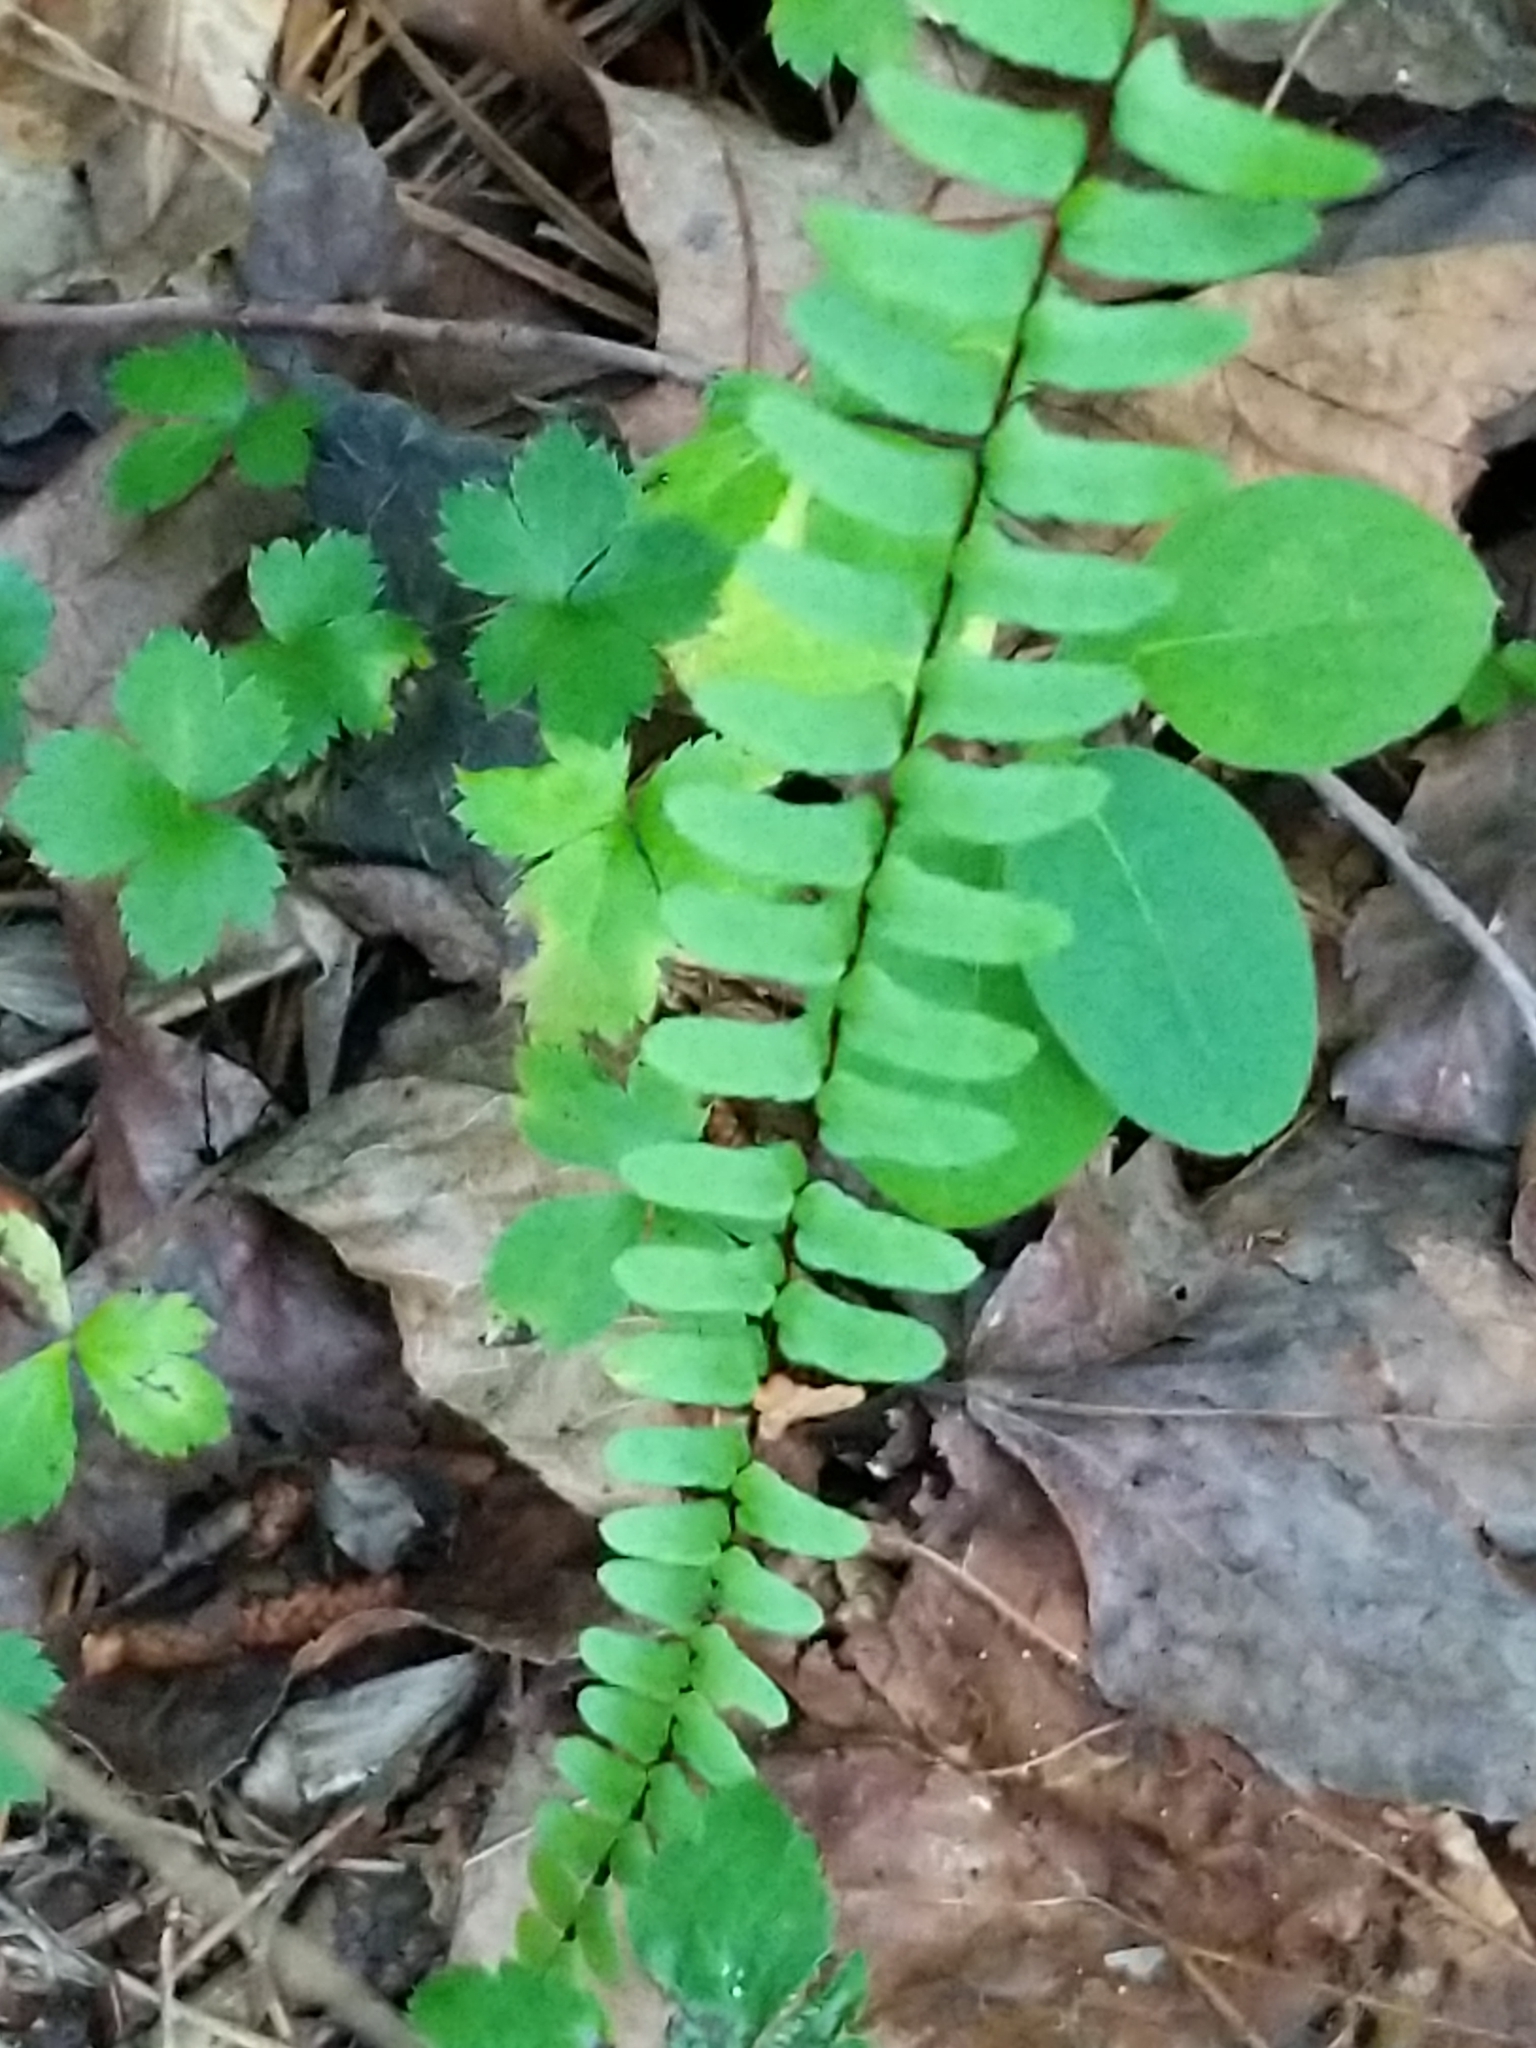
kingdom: Plantae
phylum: Tracheophyta
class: Polypodiopsida
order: Polypodiales
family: Aspleniaceae
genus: Asplenium
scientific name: Asplenium platyneuron
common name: Ebony spleenwort
